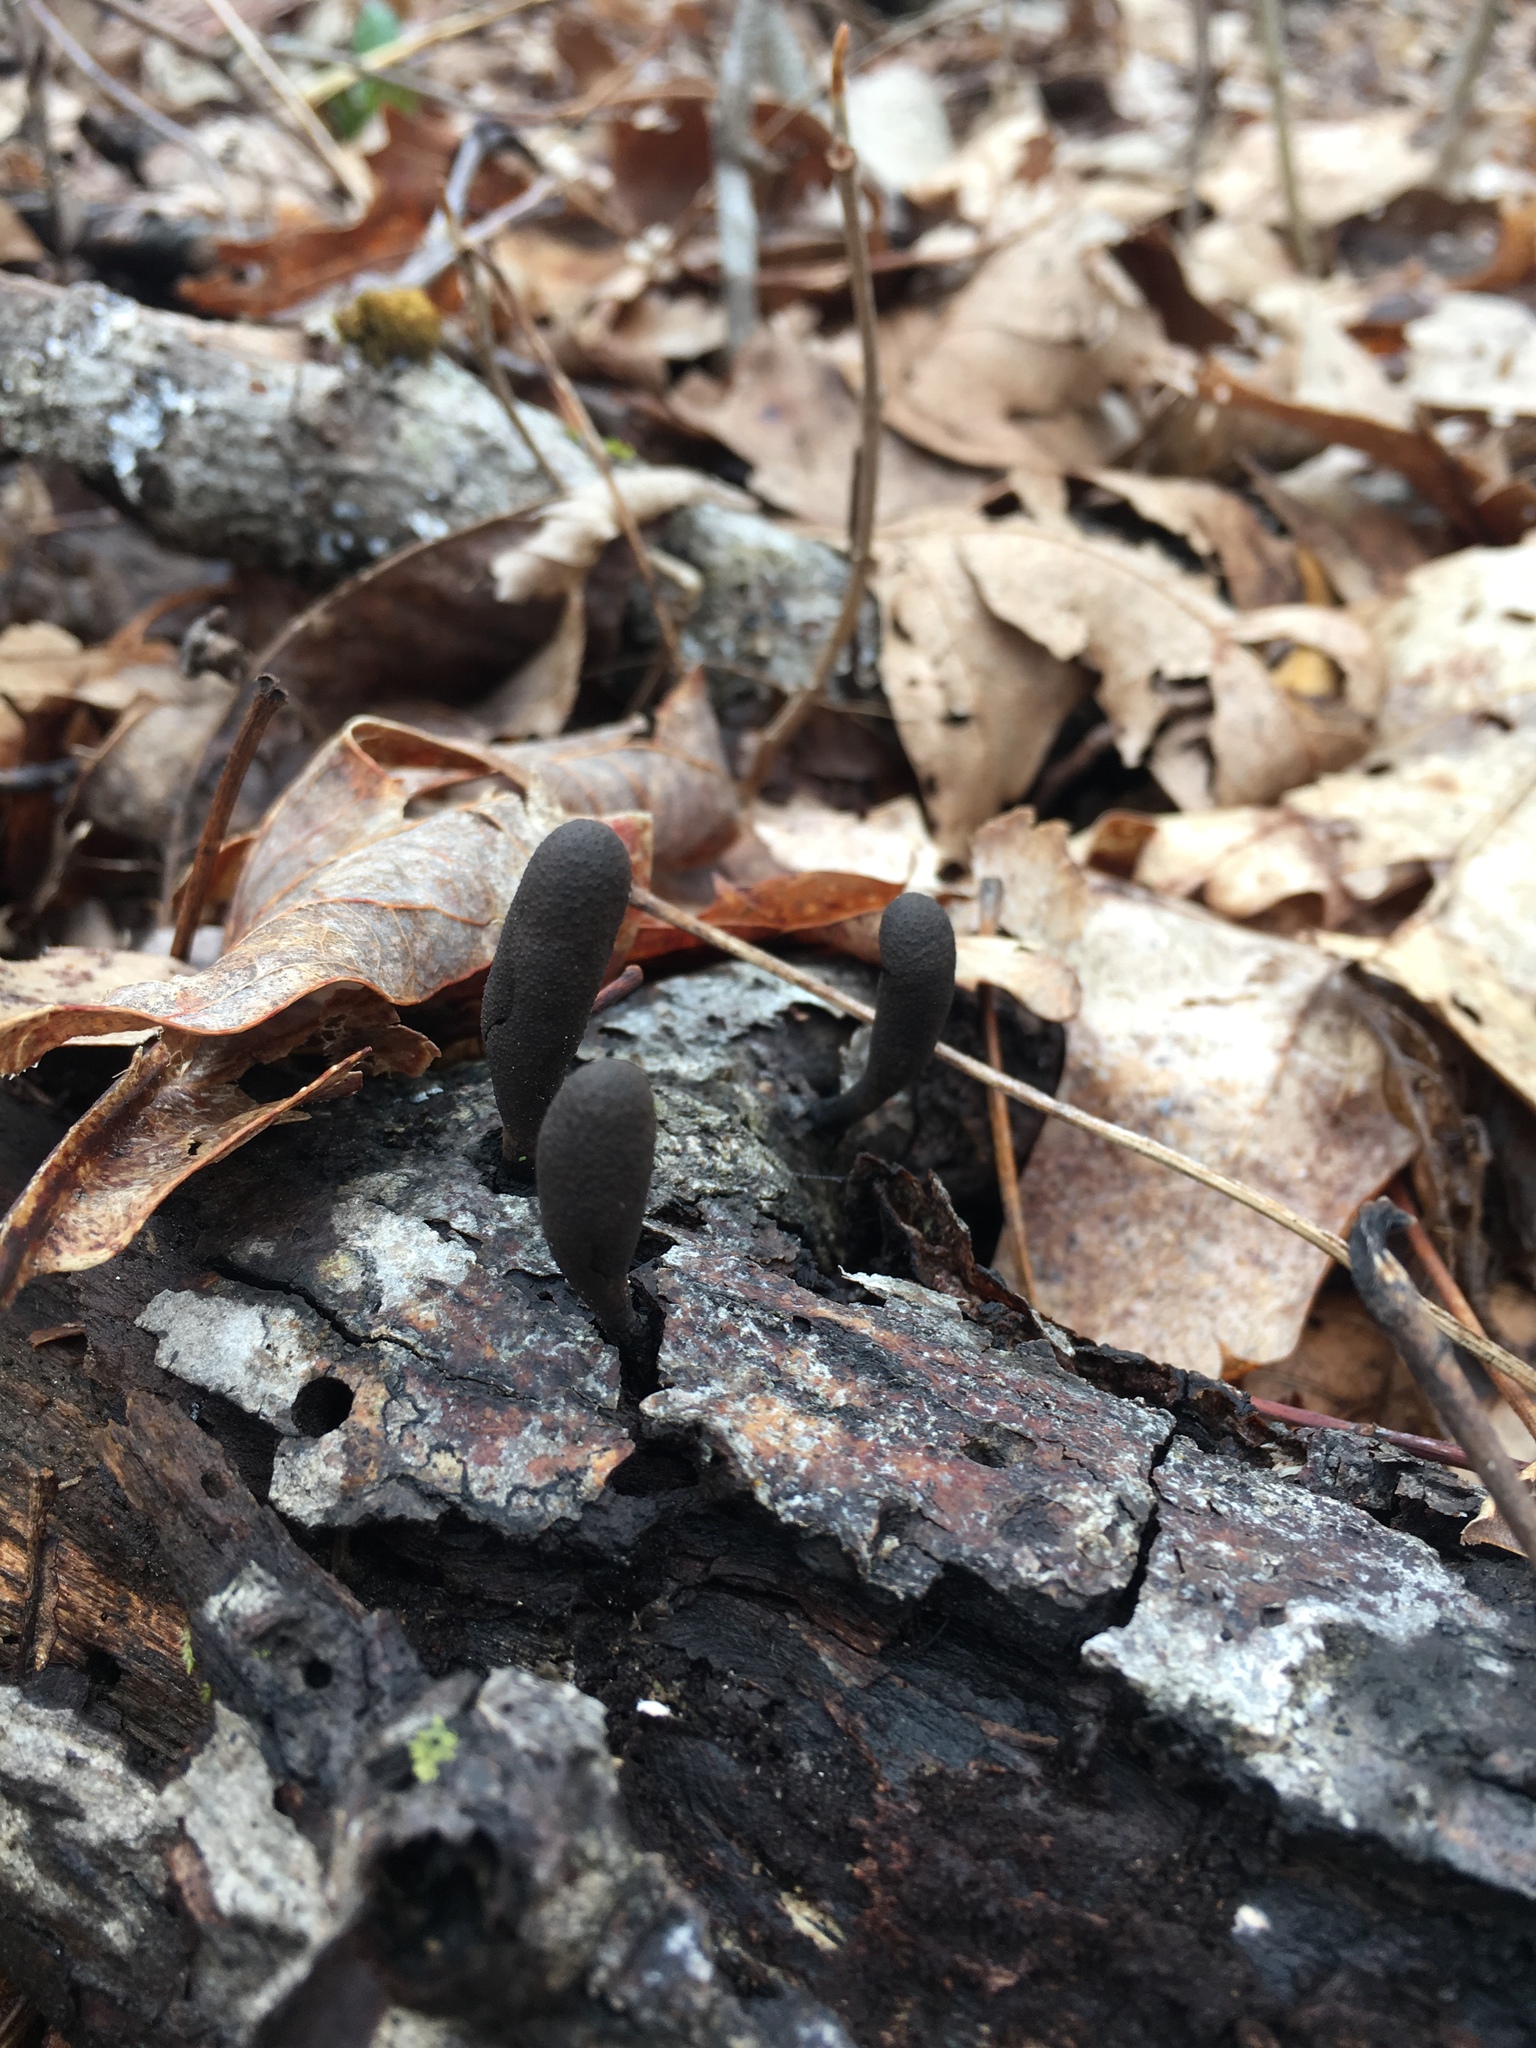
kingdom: Fungi
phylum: Ascomycota
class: Sordariomycetes
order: Xylariales
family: Xylariaceae
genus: Xylaria
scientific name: Xylaria polymorpha
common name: Dead man's fingers
